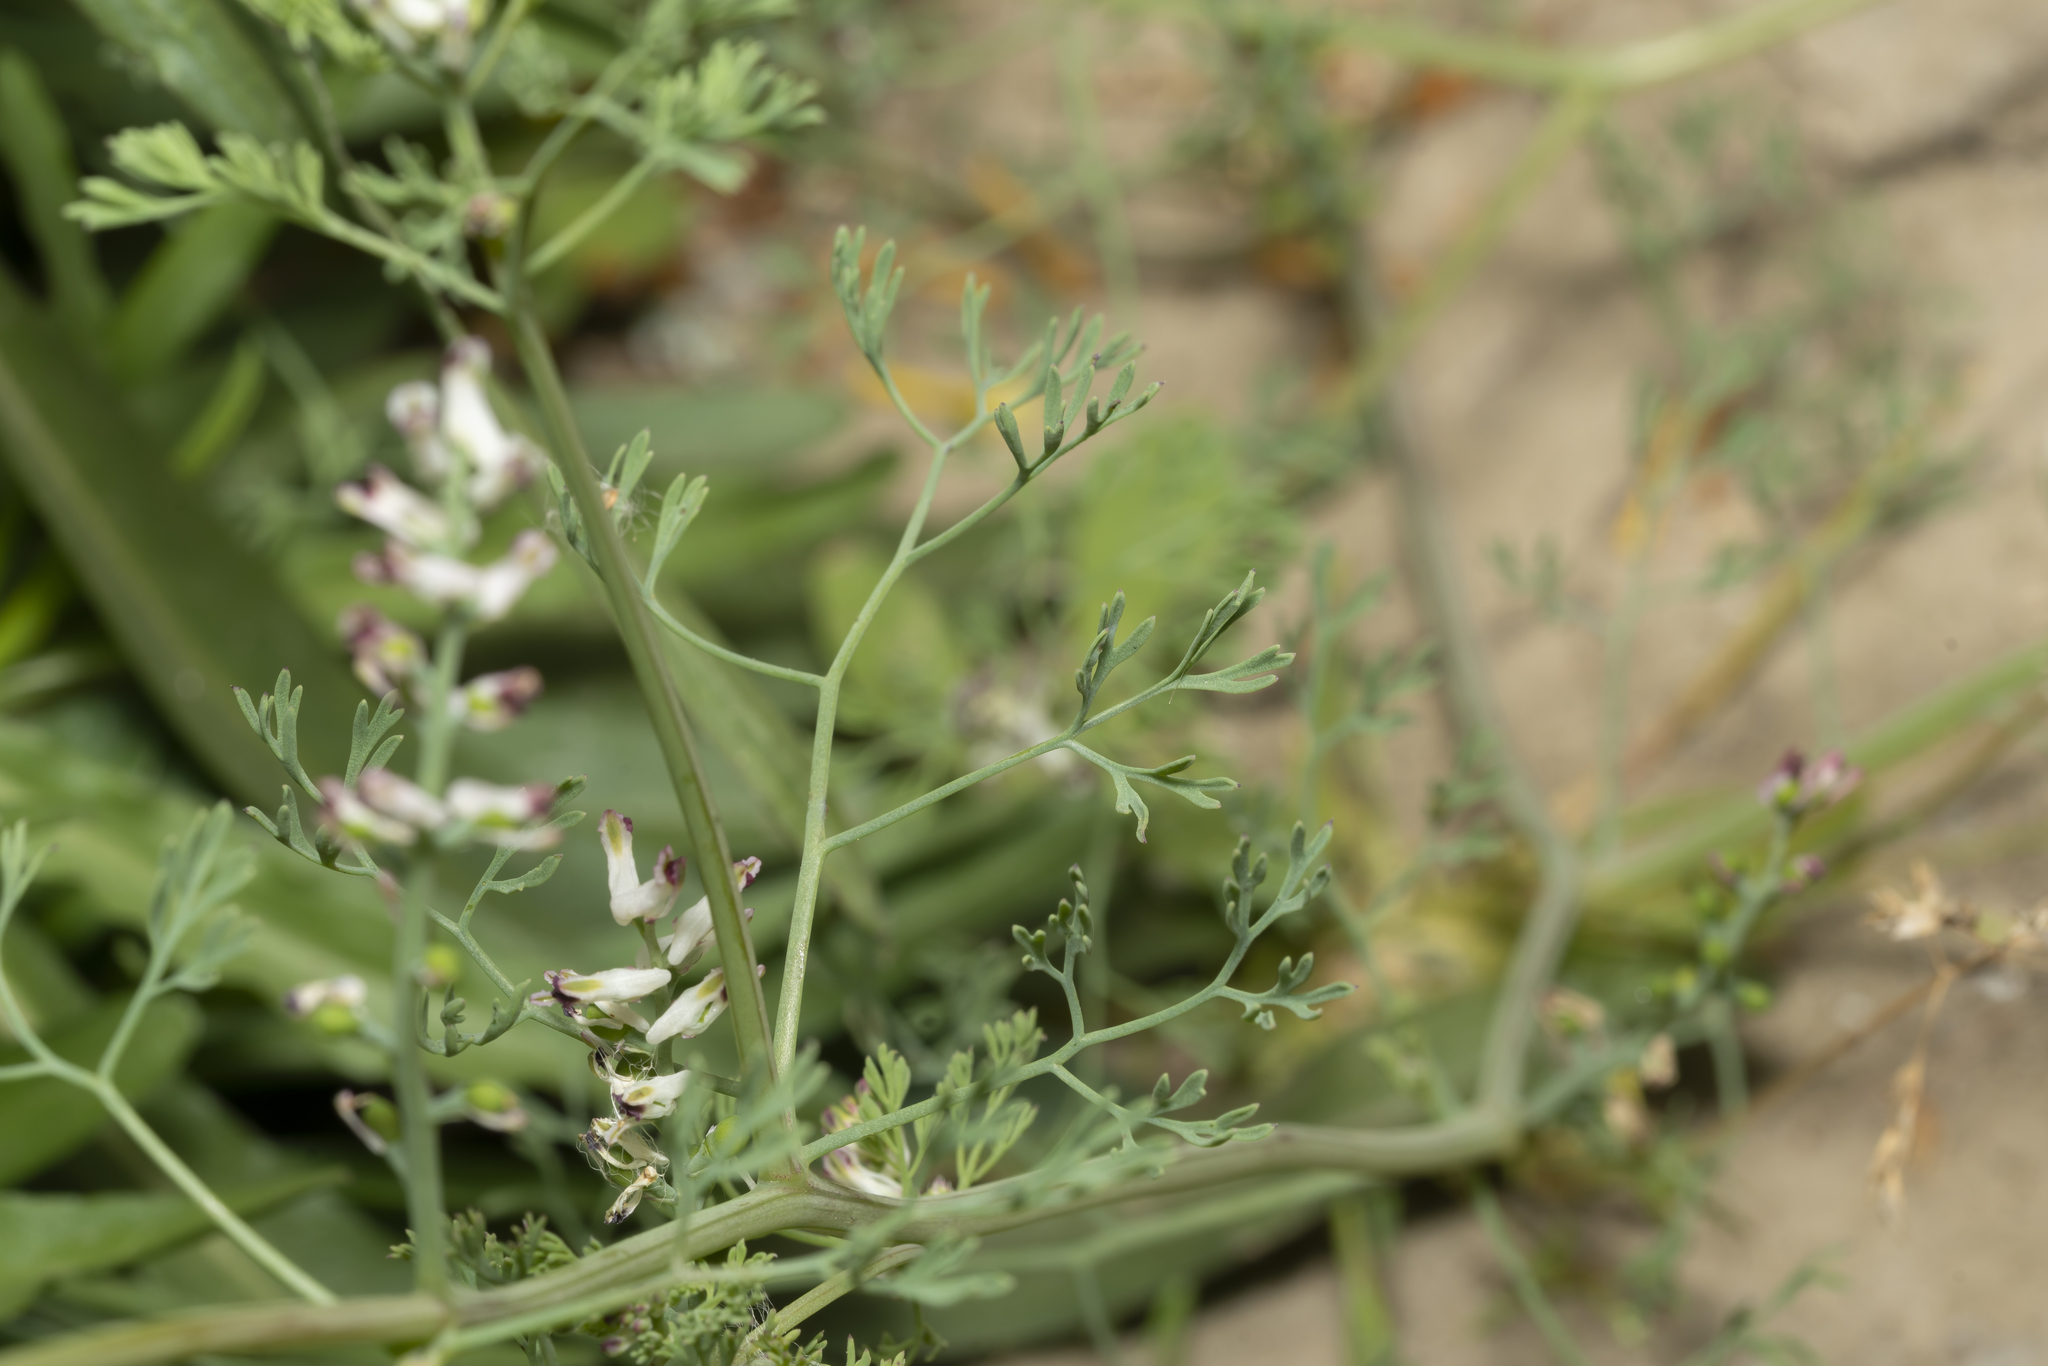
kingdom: Plantae
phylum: Tracheophyta
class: Magnoliopsida
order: Ranunculales
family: Papaveraceae
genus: Fumaria
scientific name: Fumaria parviflora
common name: Fine-leaved fumitory
